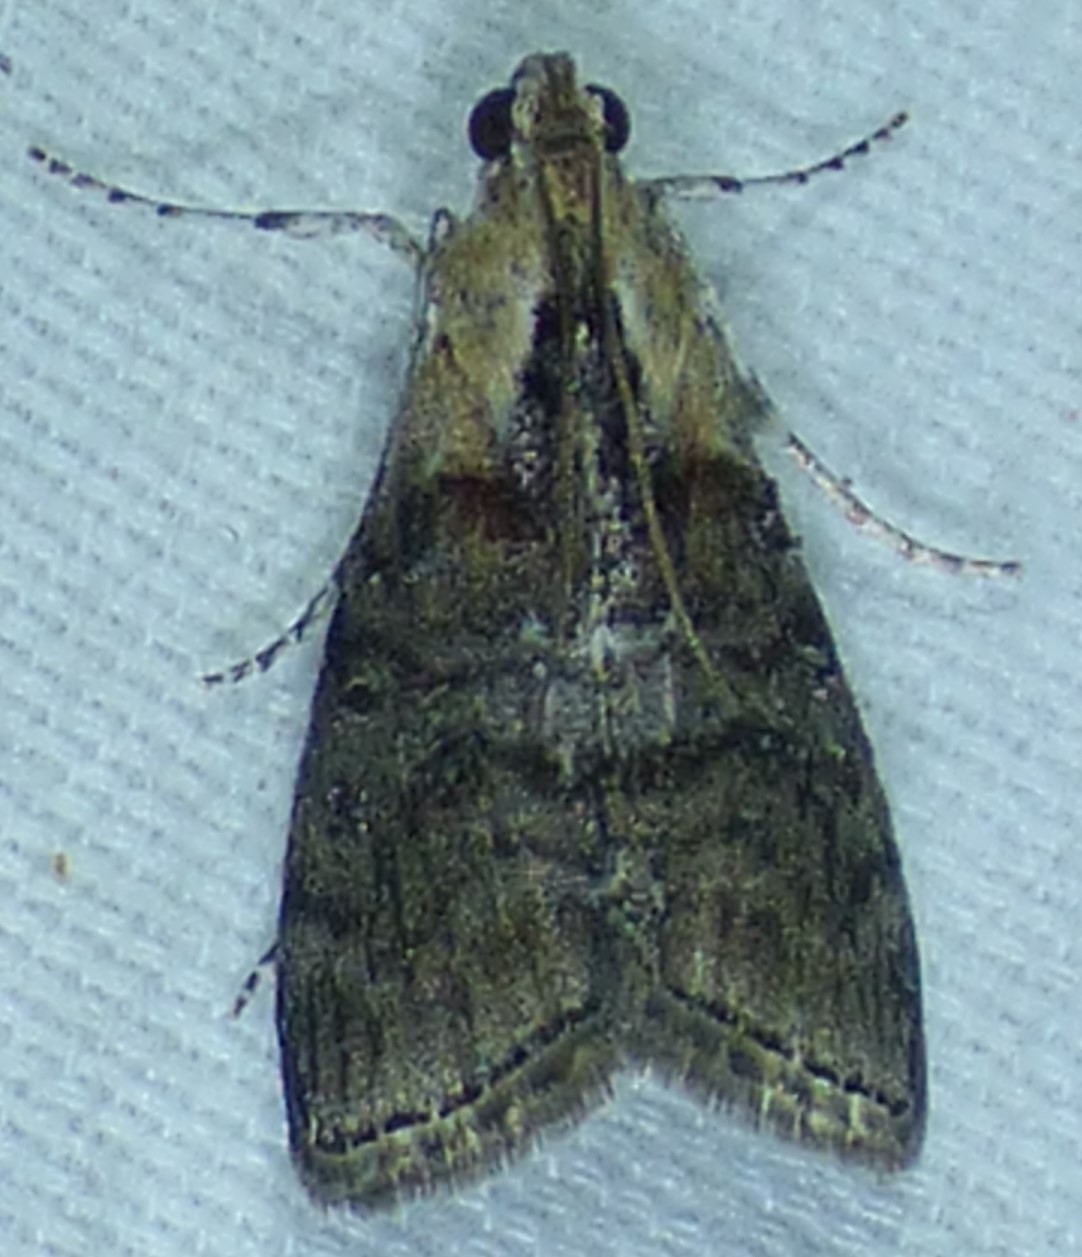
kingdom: Animalia
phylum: Arthropoda
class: Insecta
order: Lepidoptera
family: Pyralidae
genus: Pococera
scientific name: Pococera expandens
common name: Striped oak webworm moth
